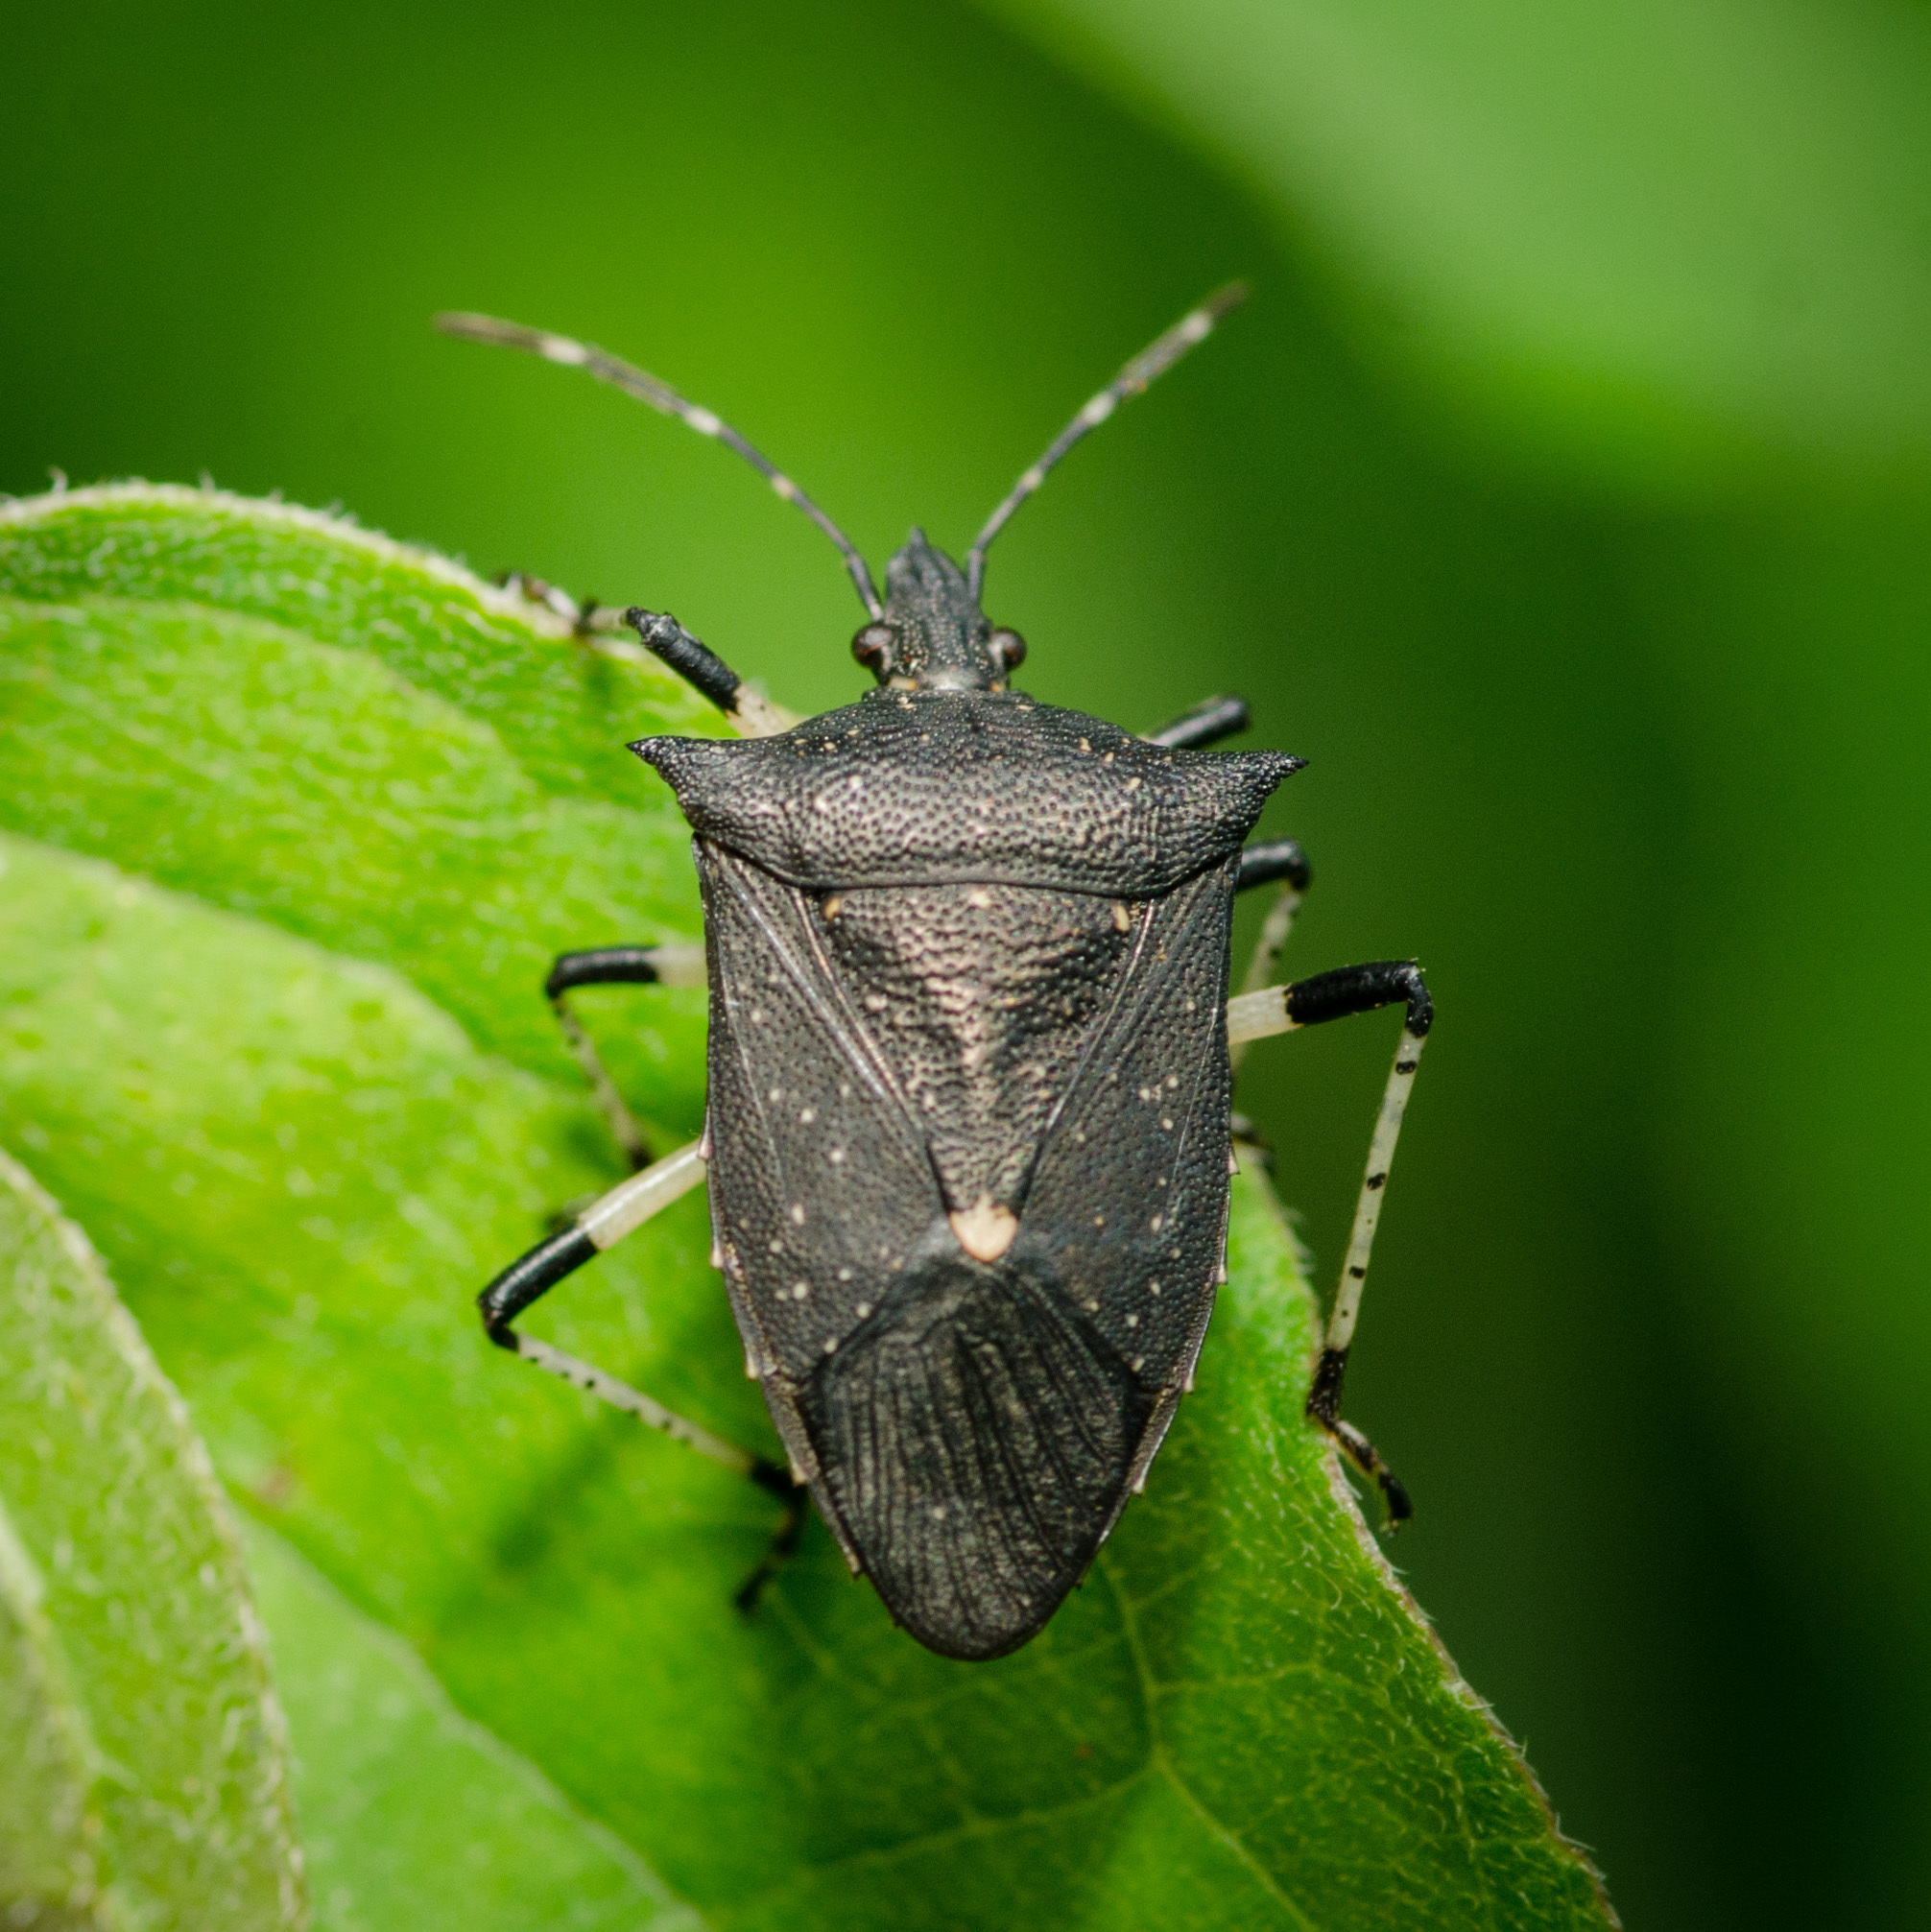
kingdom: Animalia
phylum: Arthropoda
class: Insecta
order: Hemiptera
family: Pentatomidae
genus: Proxys
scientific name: Proxys punctulatus
